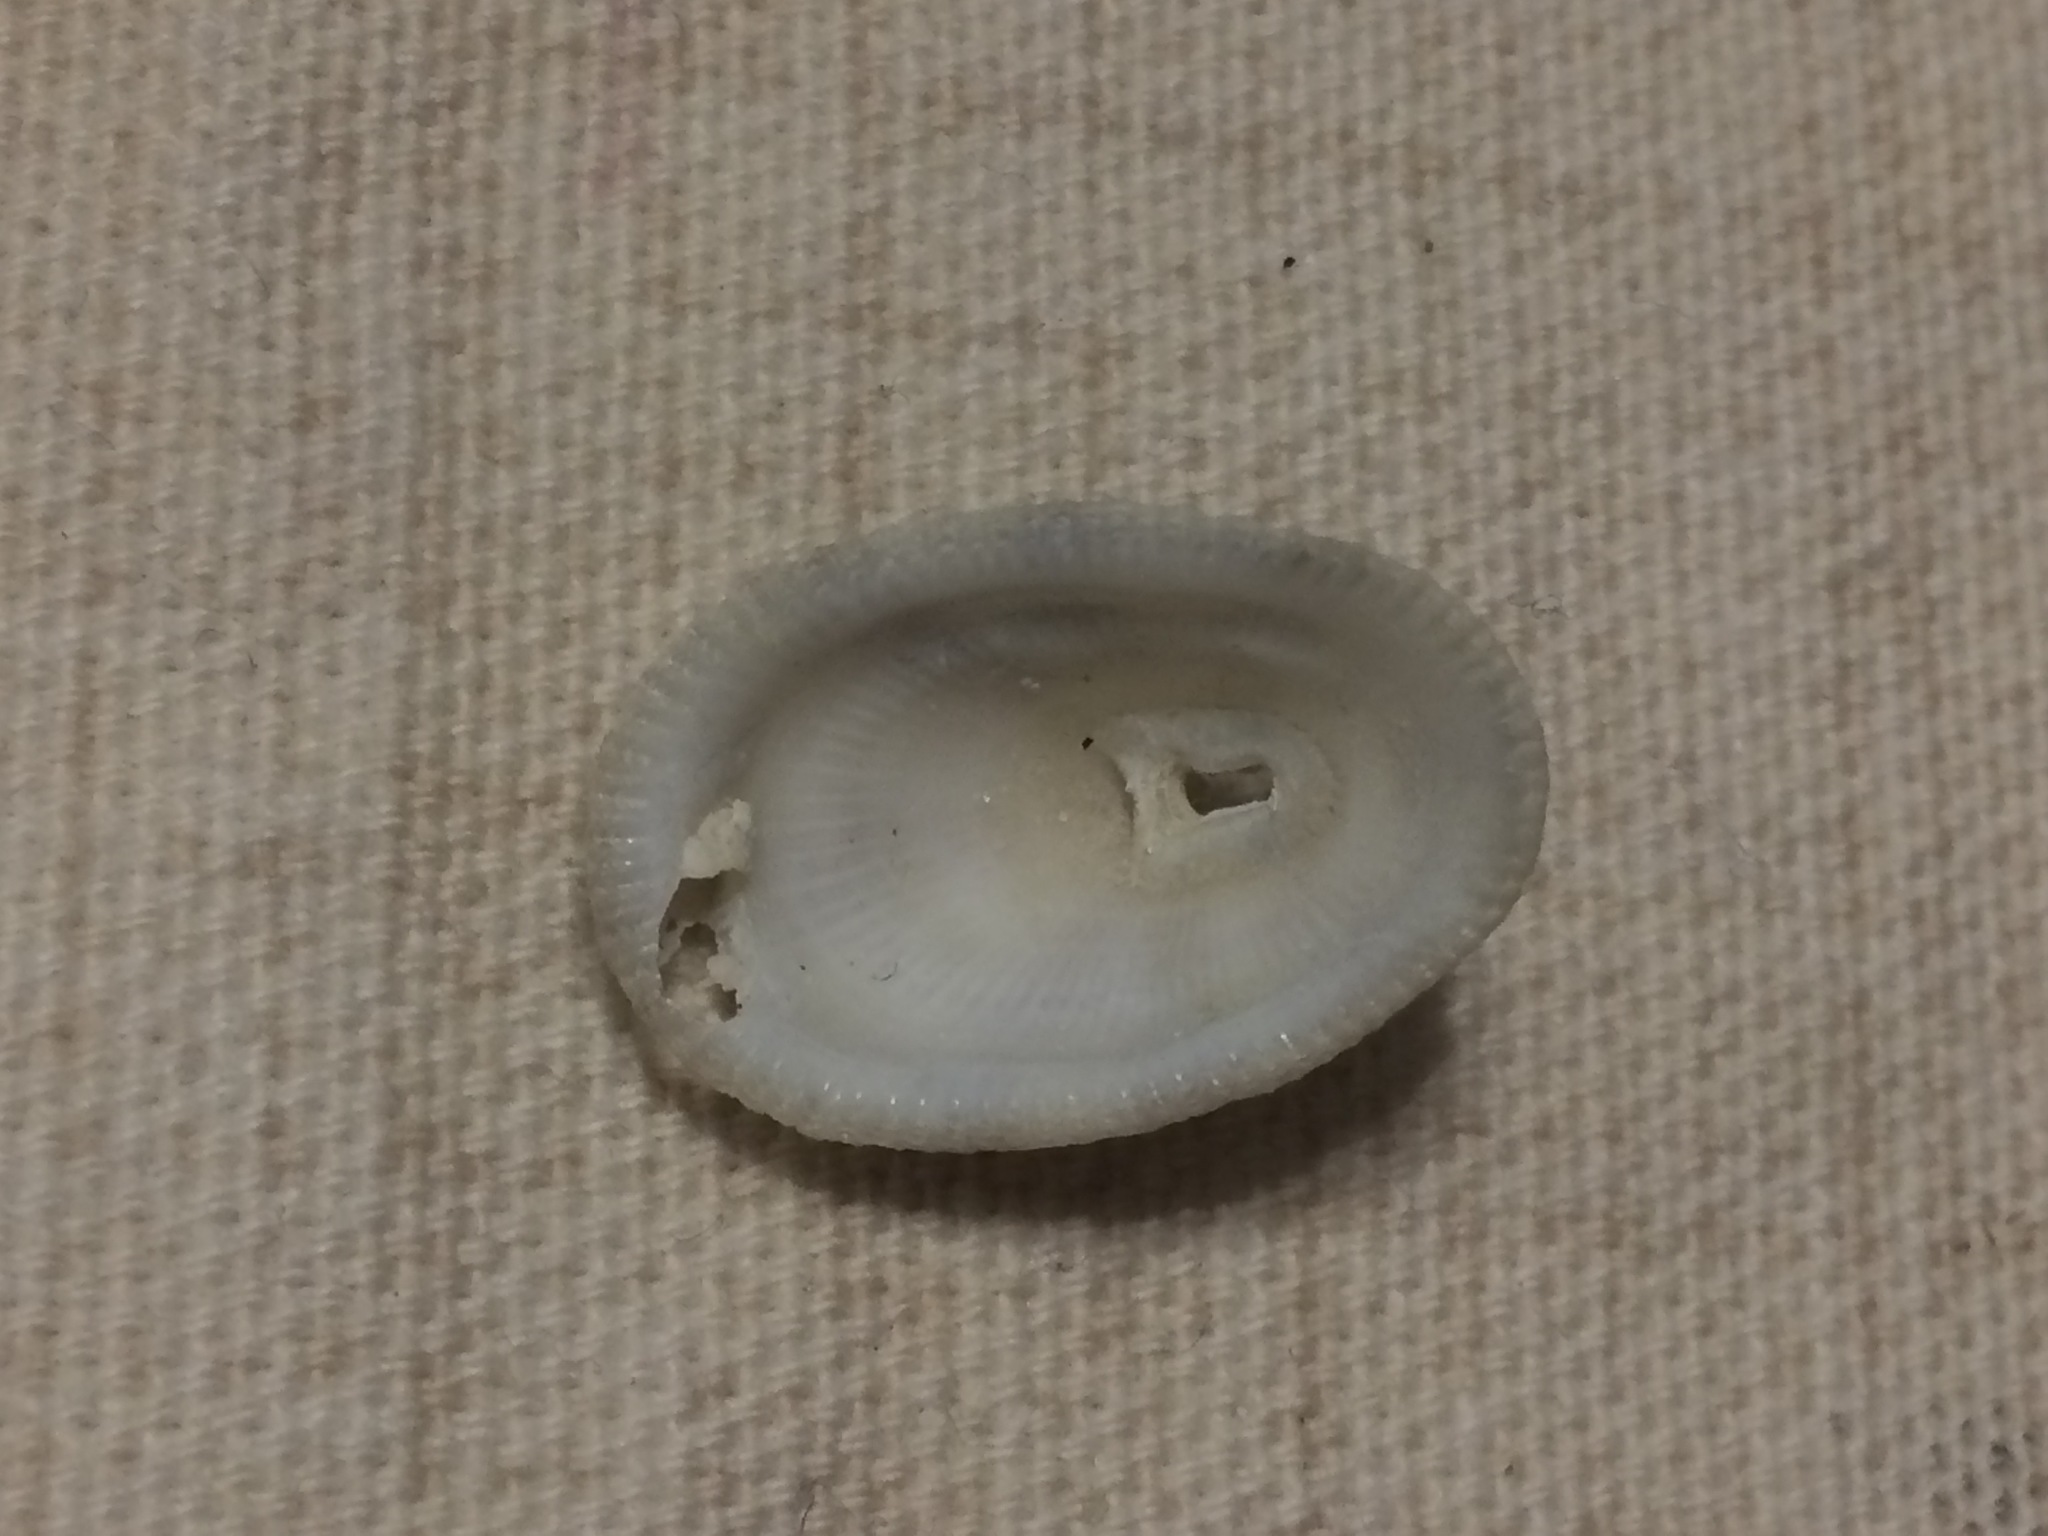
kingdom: Animalia
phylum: Mollusca
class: Gastropoda
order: Lepetellida
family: Fissurellidae
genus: Diodora
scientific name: Diodora cayenensis
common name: Cayenne keyhole limpet
